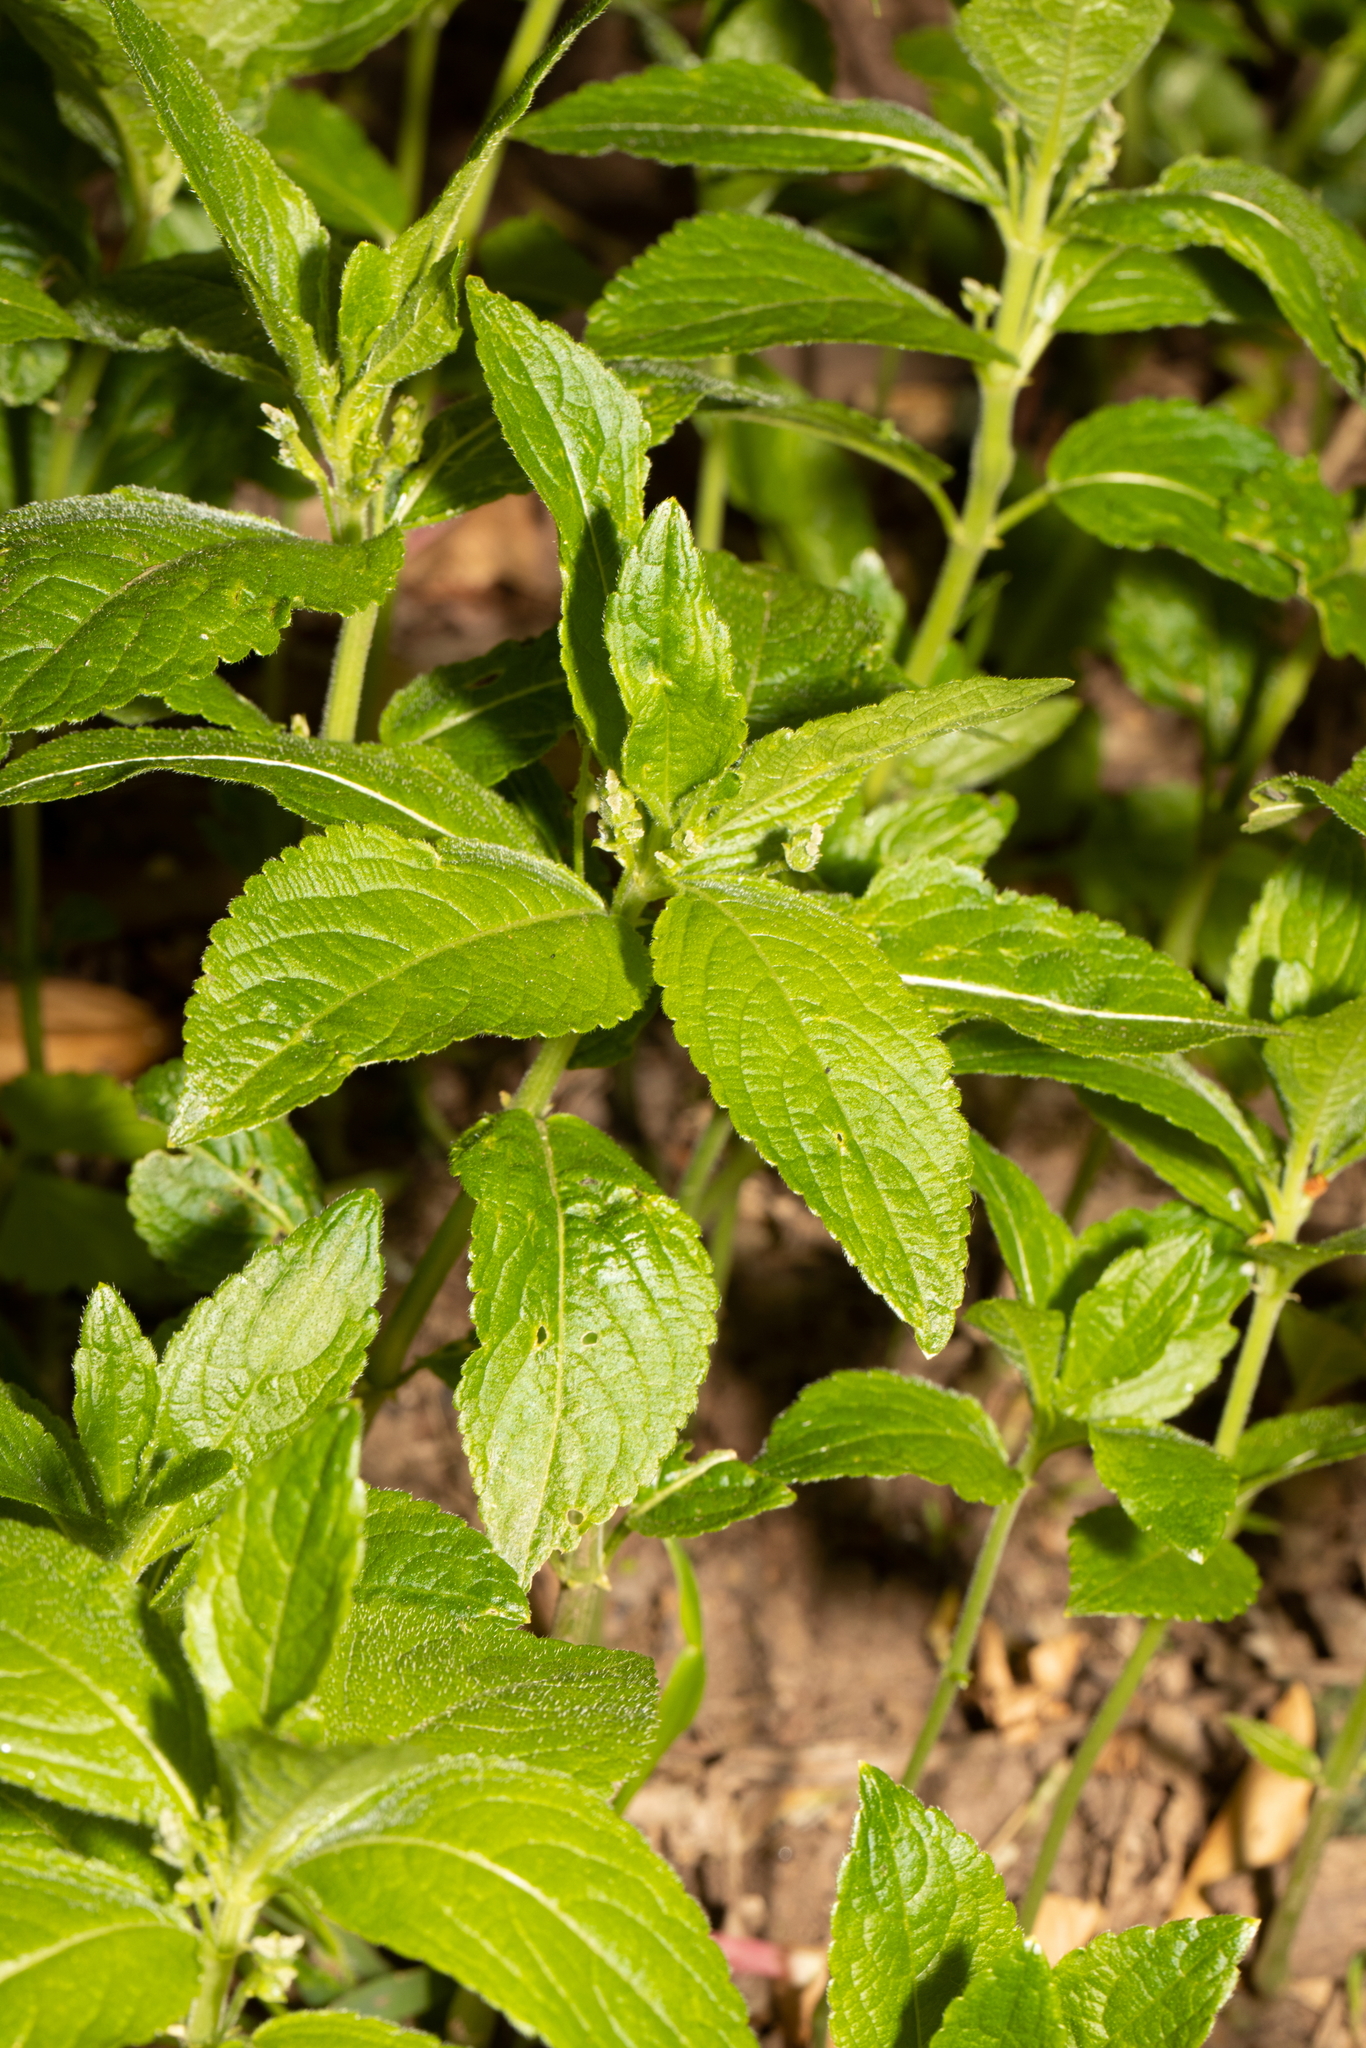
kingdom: Plantae
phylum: Tracheophyta
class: Magnoliopsida
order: Malpighiales
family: Euphorbiaceae
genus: Mercurialis
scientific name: Mercurialis perennis
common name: Dog mercury
